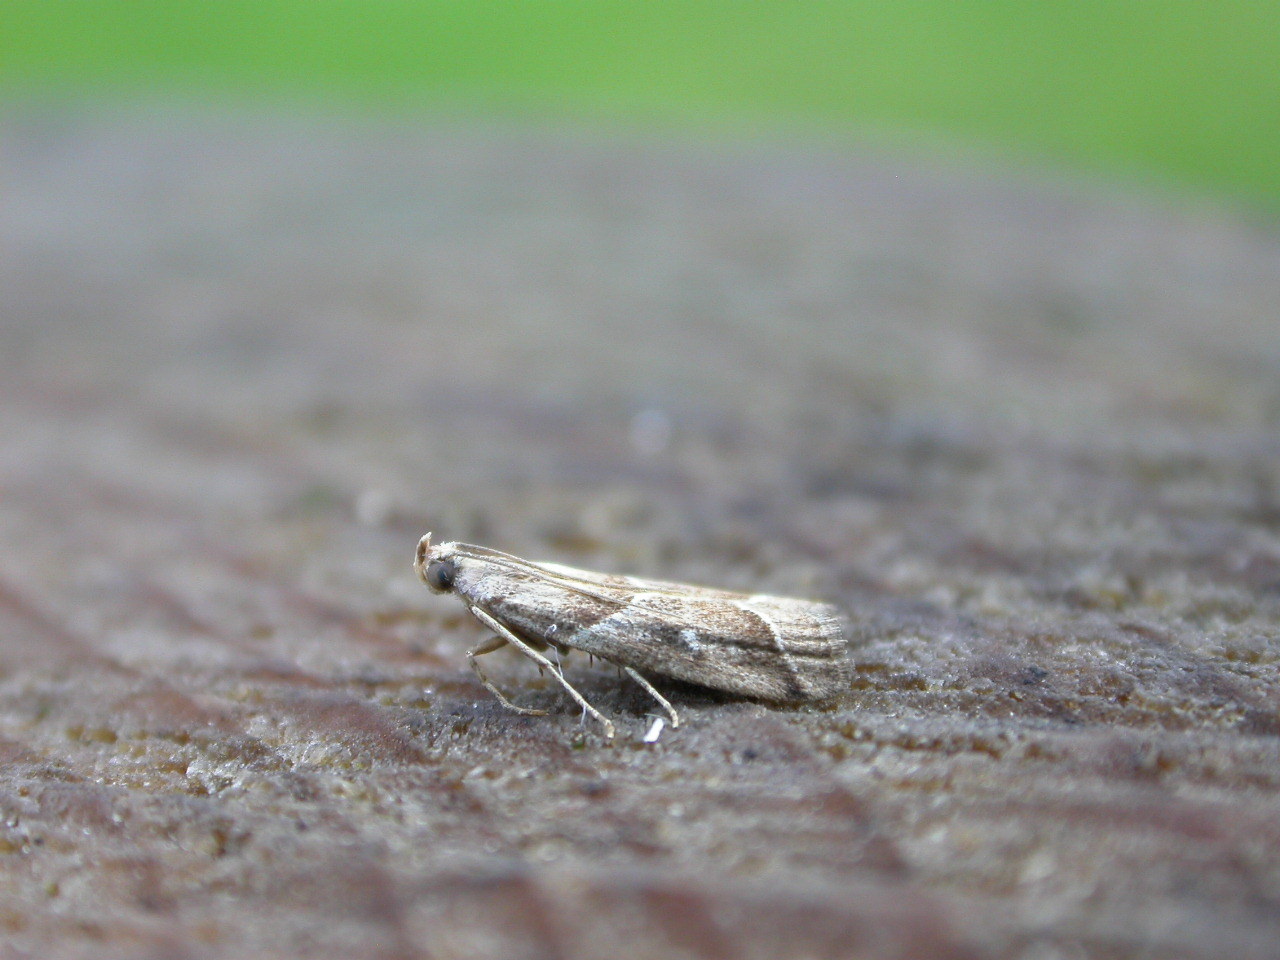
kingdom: Animalia
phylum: Arthropoda
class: Insecta
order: Lepidoptera
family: Pyralidae
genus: Nyctegretis
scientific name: Nyctegretis lineana
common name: Agate knot-horn
